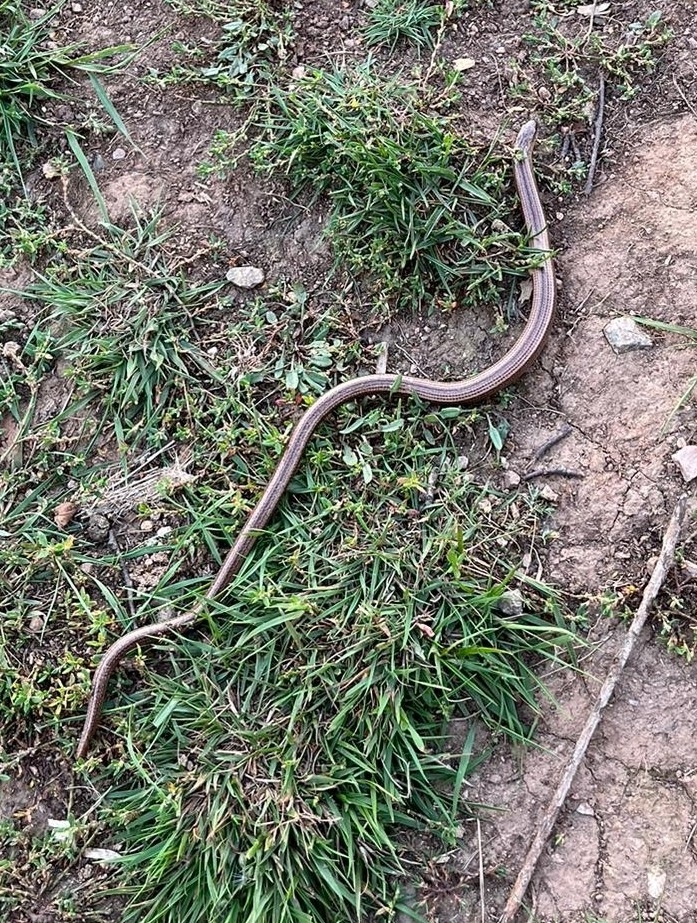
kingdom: Animalia
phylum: Chordata
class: Squamata
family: Anguidae
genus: Anguis
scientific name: Anguis fragilis
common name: Slow worm
